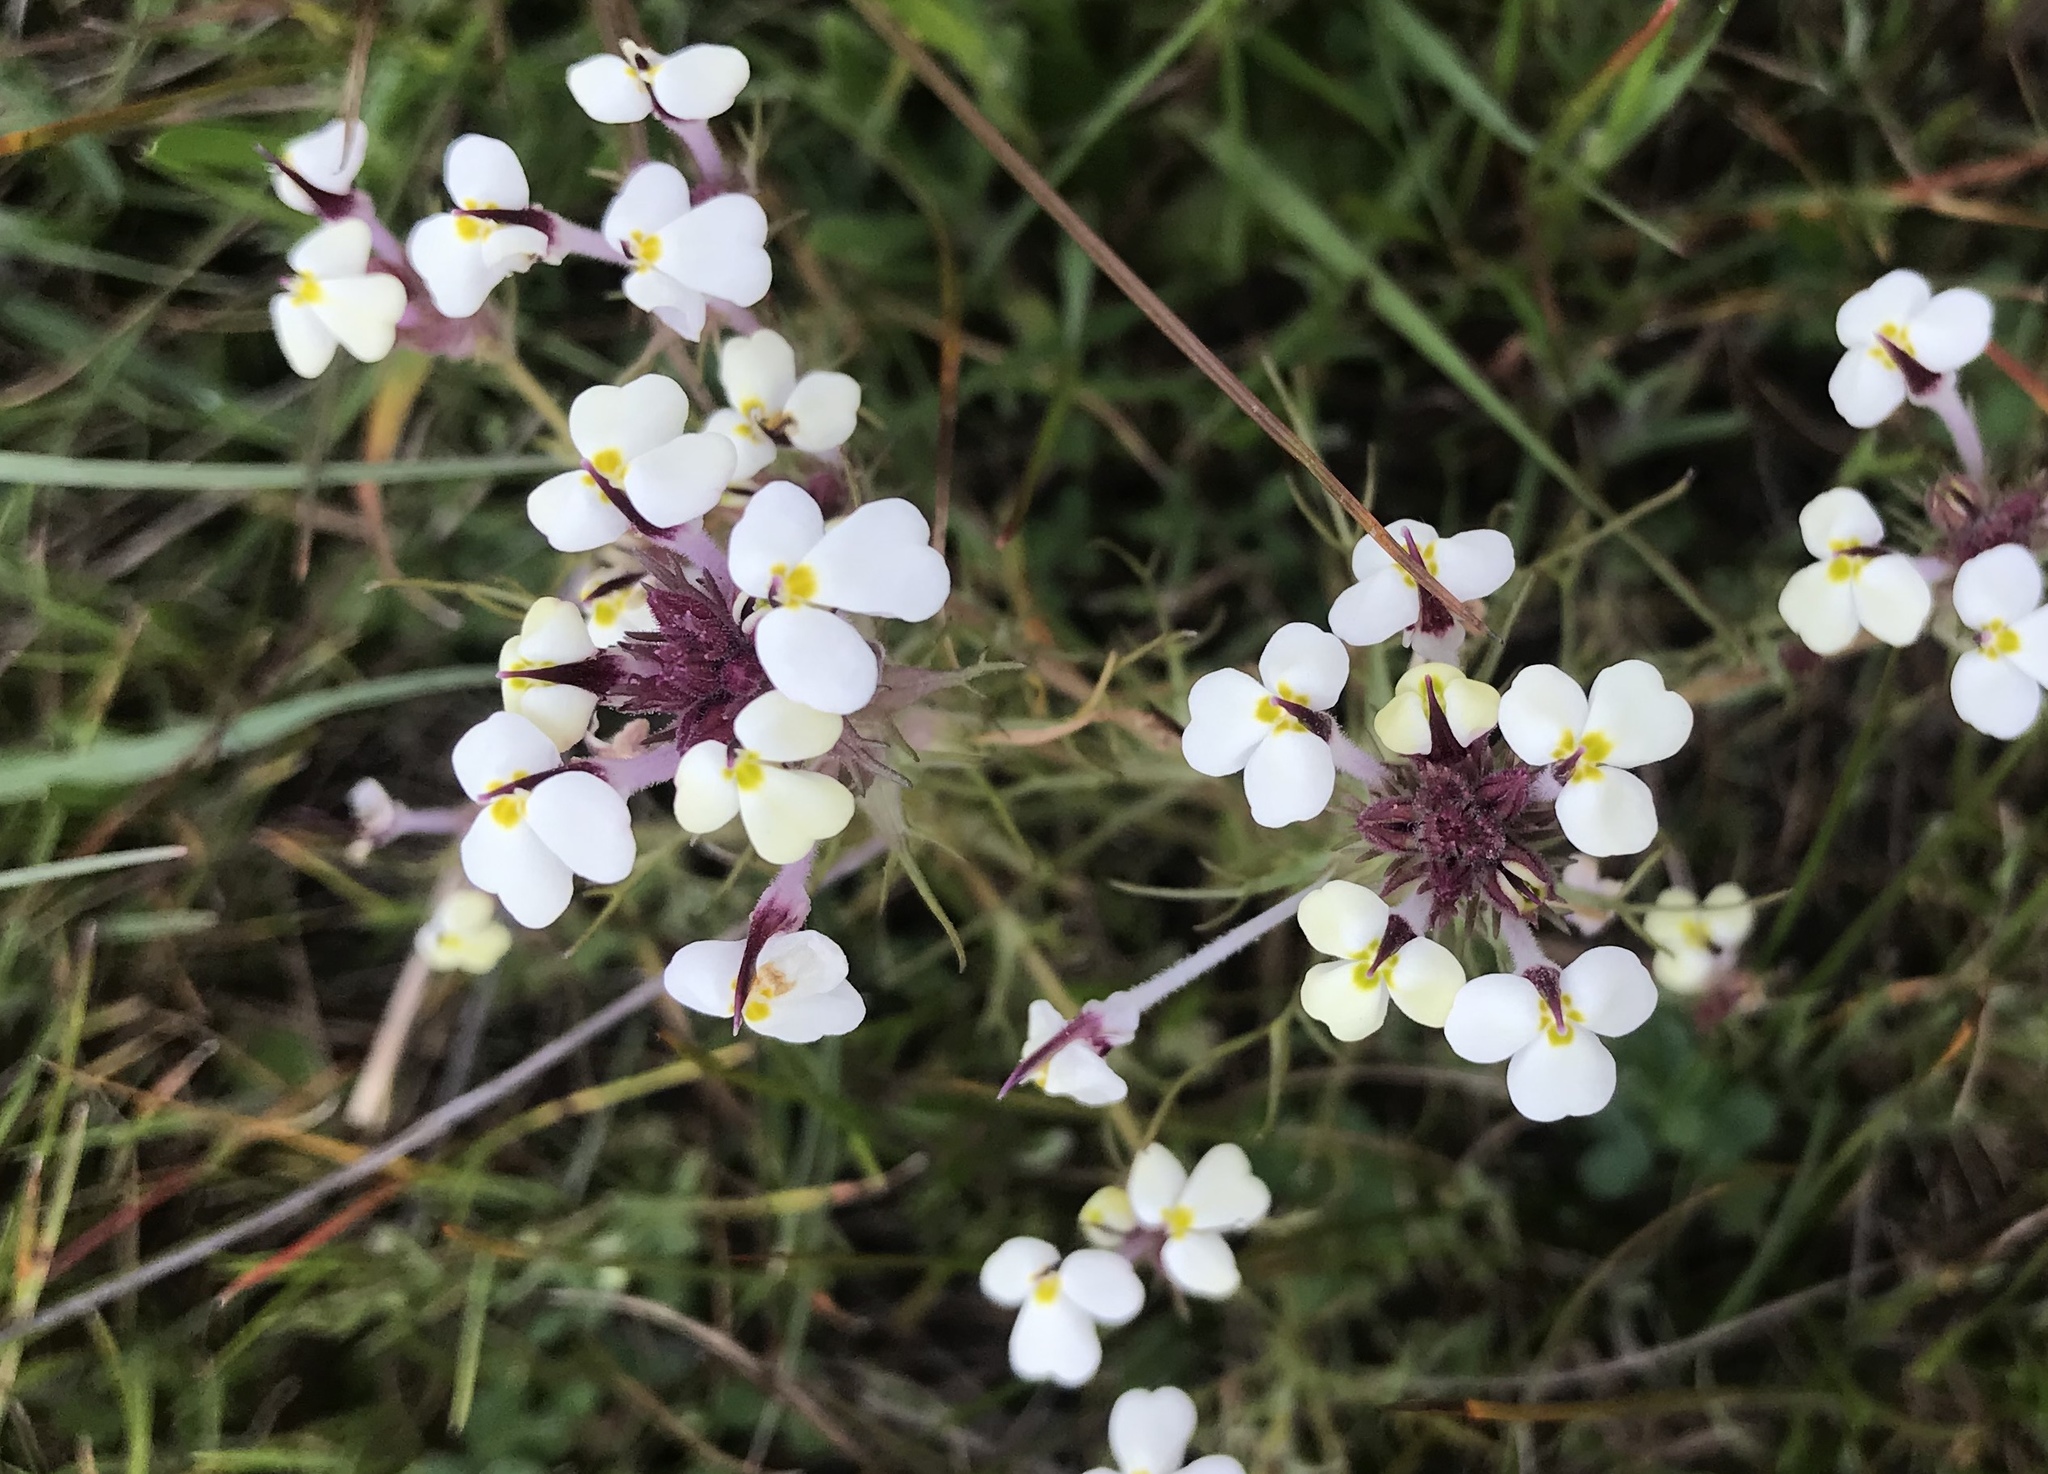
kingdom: Plantae
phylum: Tracheophyta
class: Magnoliopsida
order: Lamiales
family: Orobanchaceae
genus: Triphysaria
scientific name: Triphysaria eriantha
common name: Johnny-tuck
